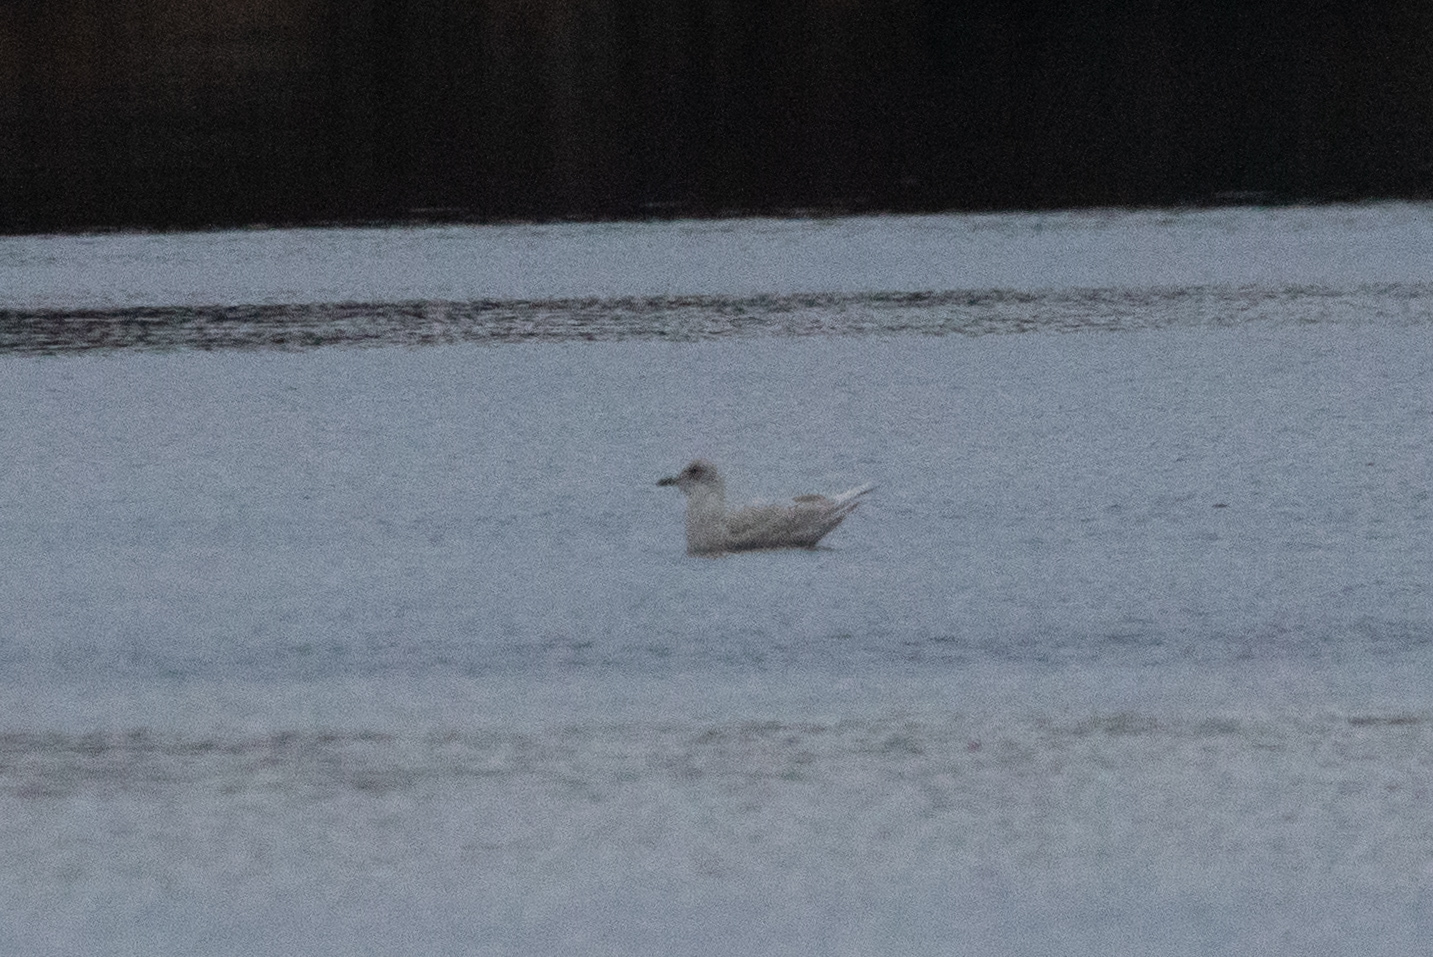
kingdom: Animalia
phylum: Chordata
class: Aves
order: Charadriiformes
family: Laridae
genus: Larus
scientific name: Larus glaucoides
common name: Iceland gull
